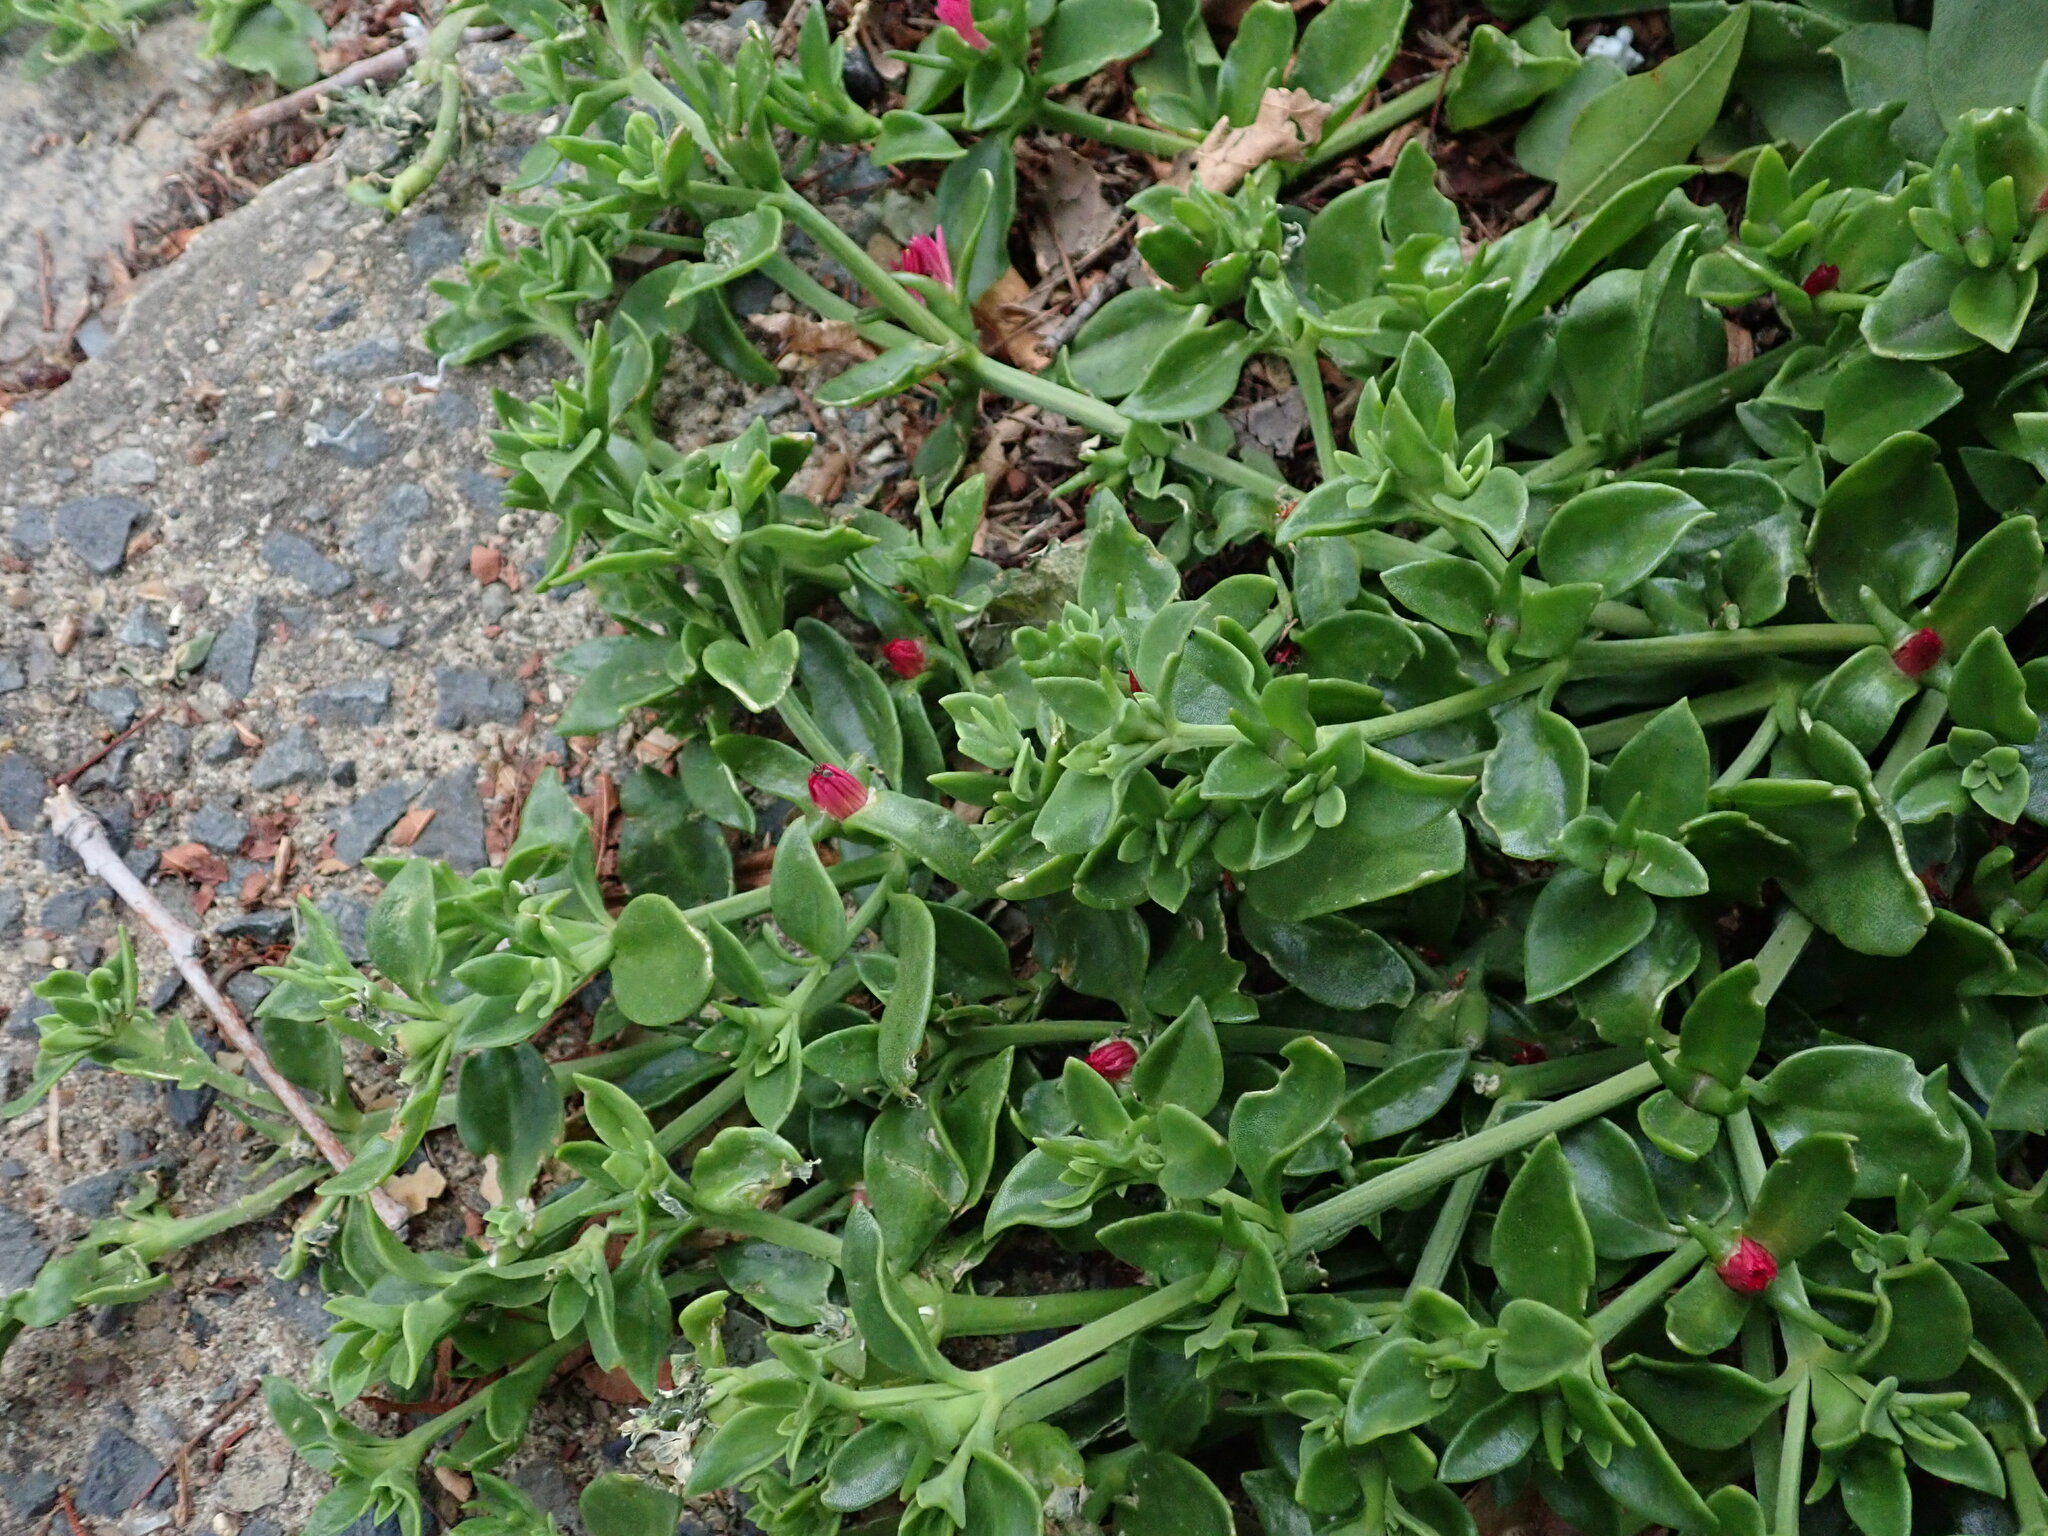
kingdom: Plantae
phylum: Tracheophyta
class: Magnoliopsida
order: Caryophyllales
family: Aizoaceae
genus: Mesembryanthemum
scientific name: Mesembryanthemum cordifolium
